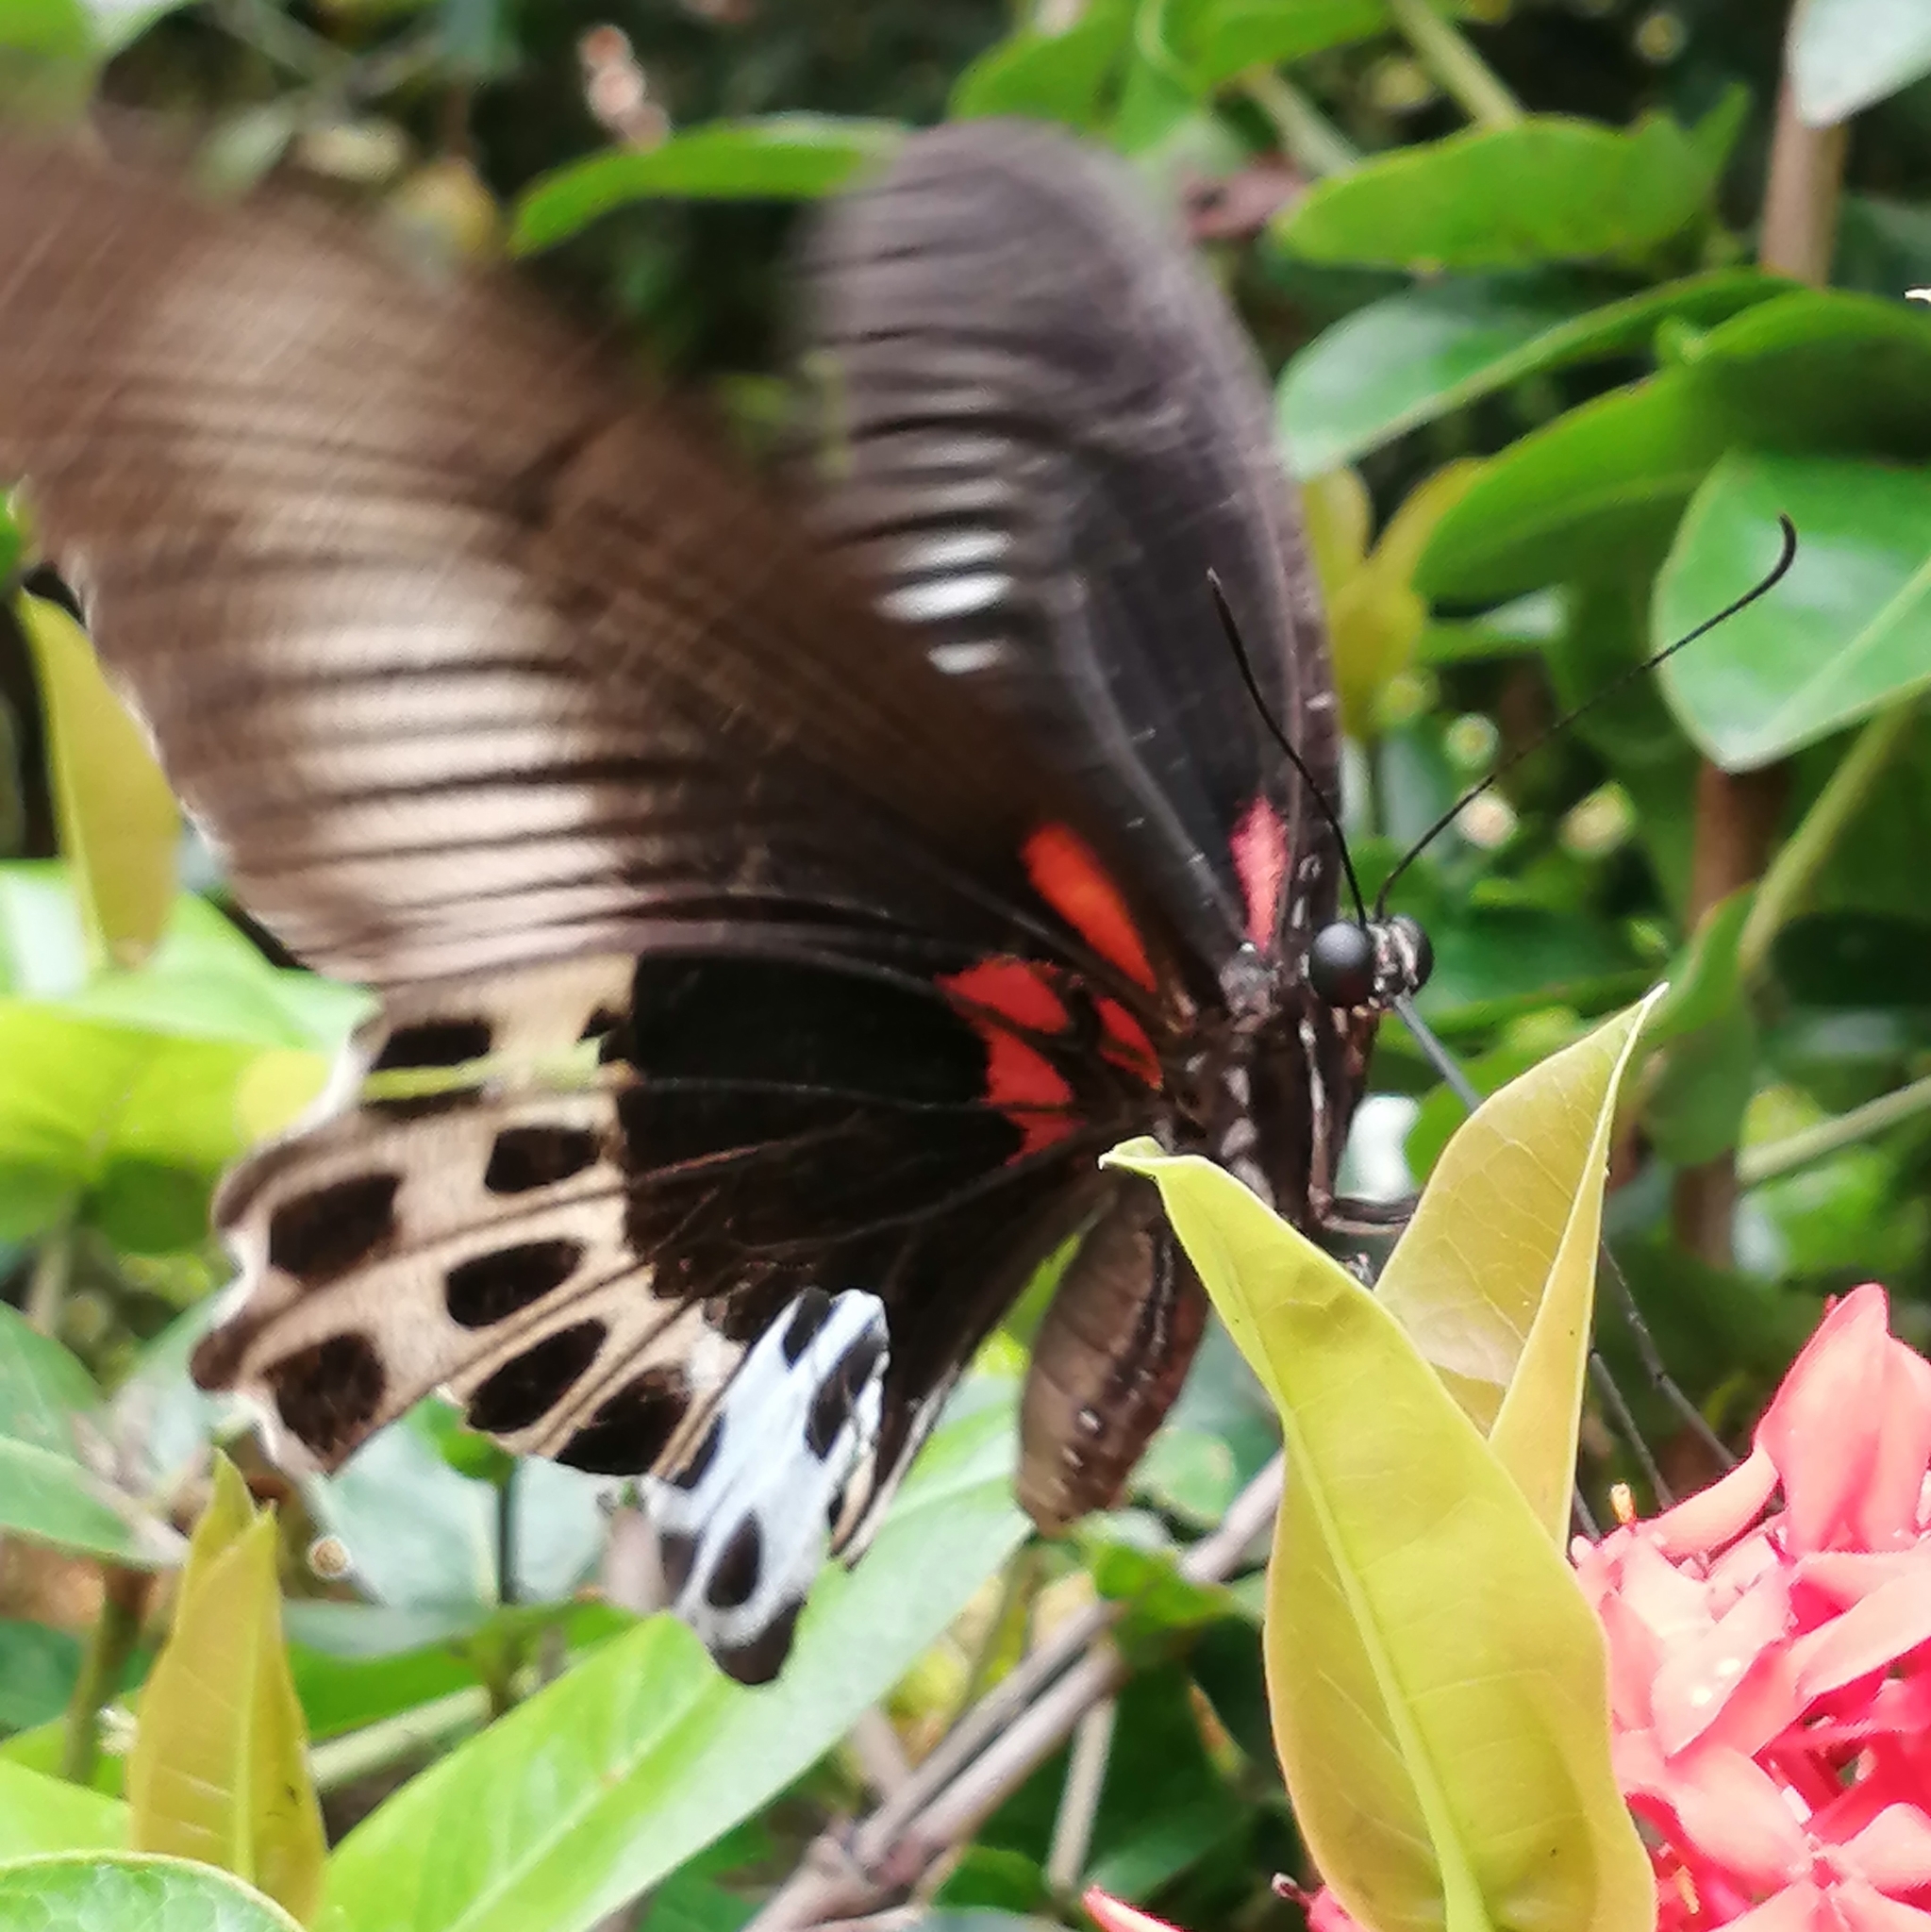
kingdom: Animalia
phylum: Arthropoda
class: Insecta
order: Lepidoptera
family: Papilionidae
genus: Papilio
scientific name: Papilio memnon
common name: Great mormon
